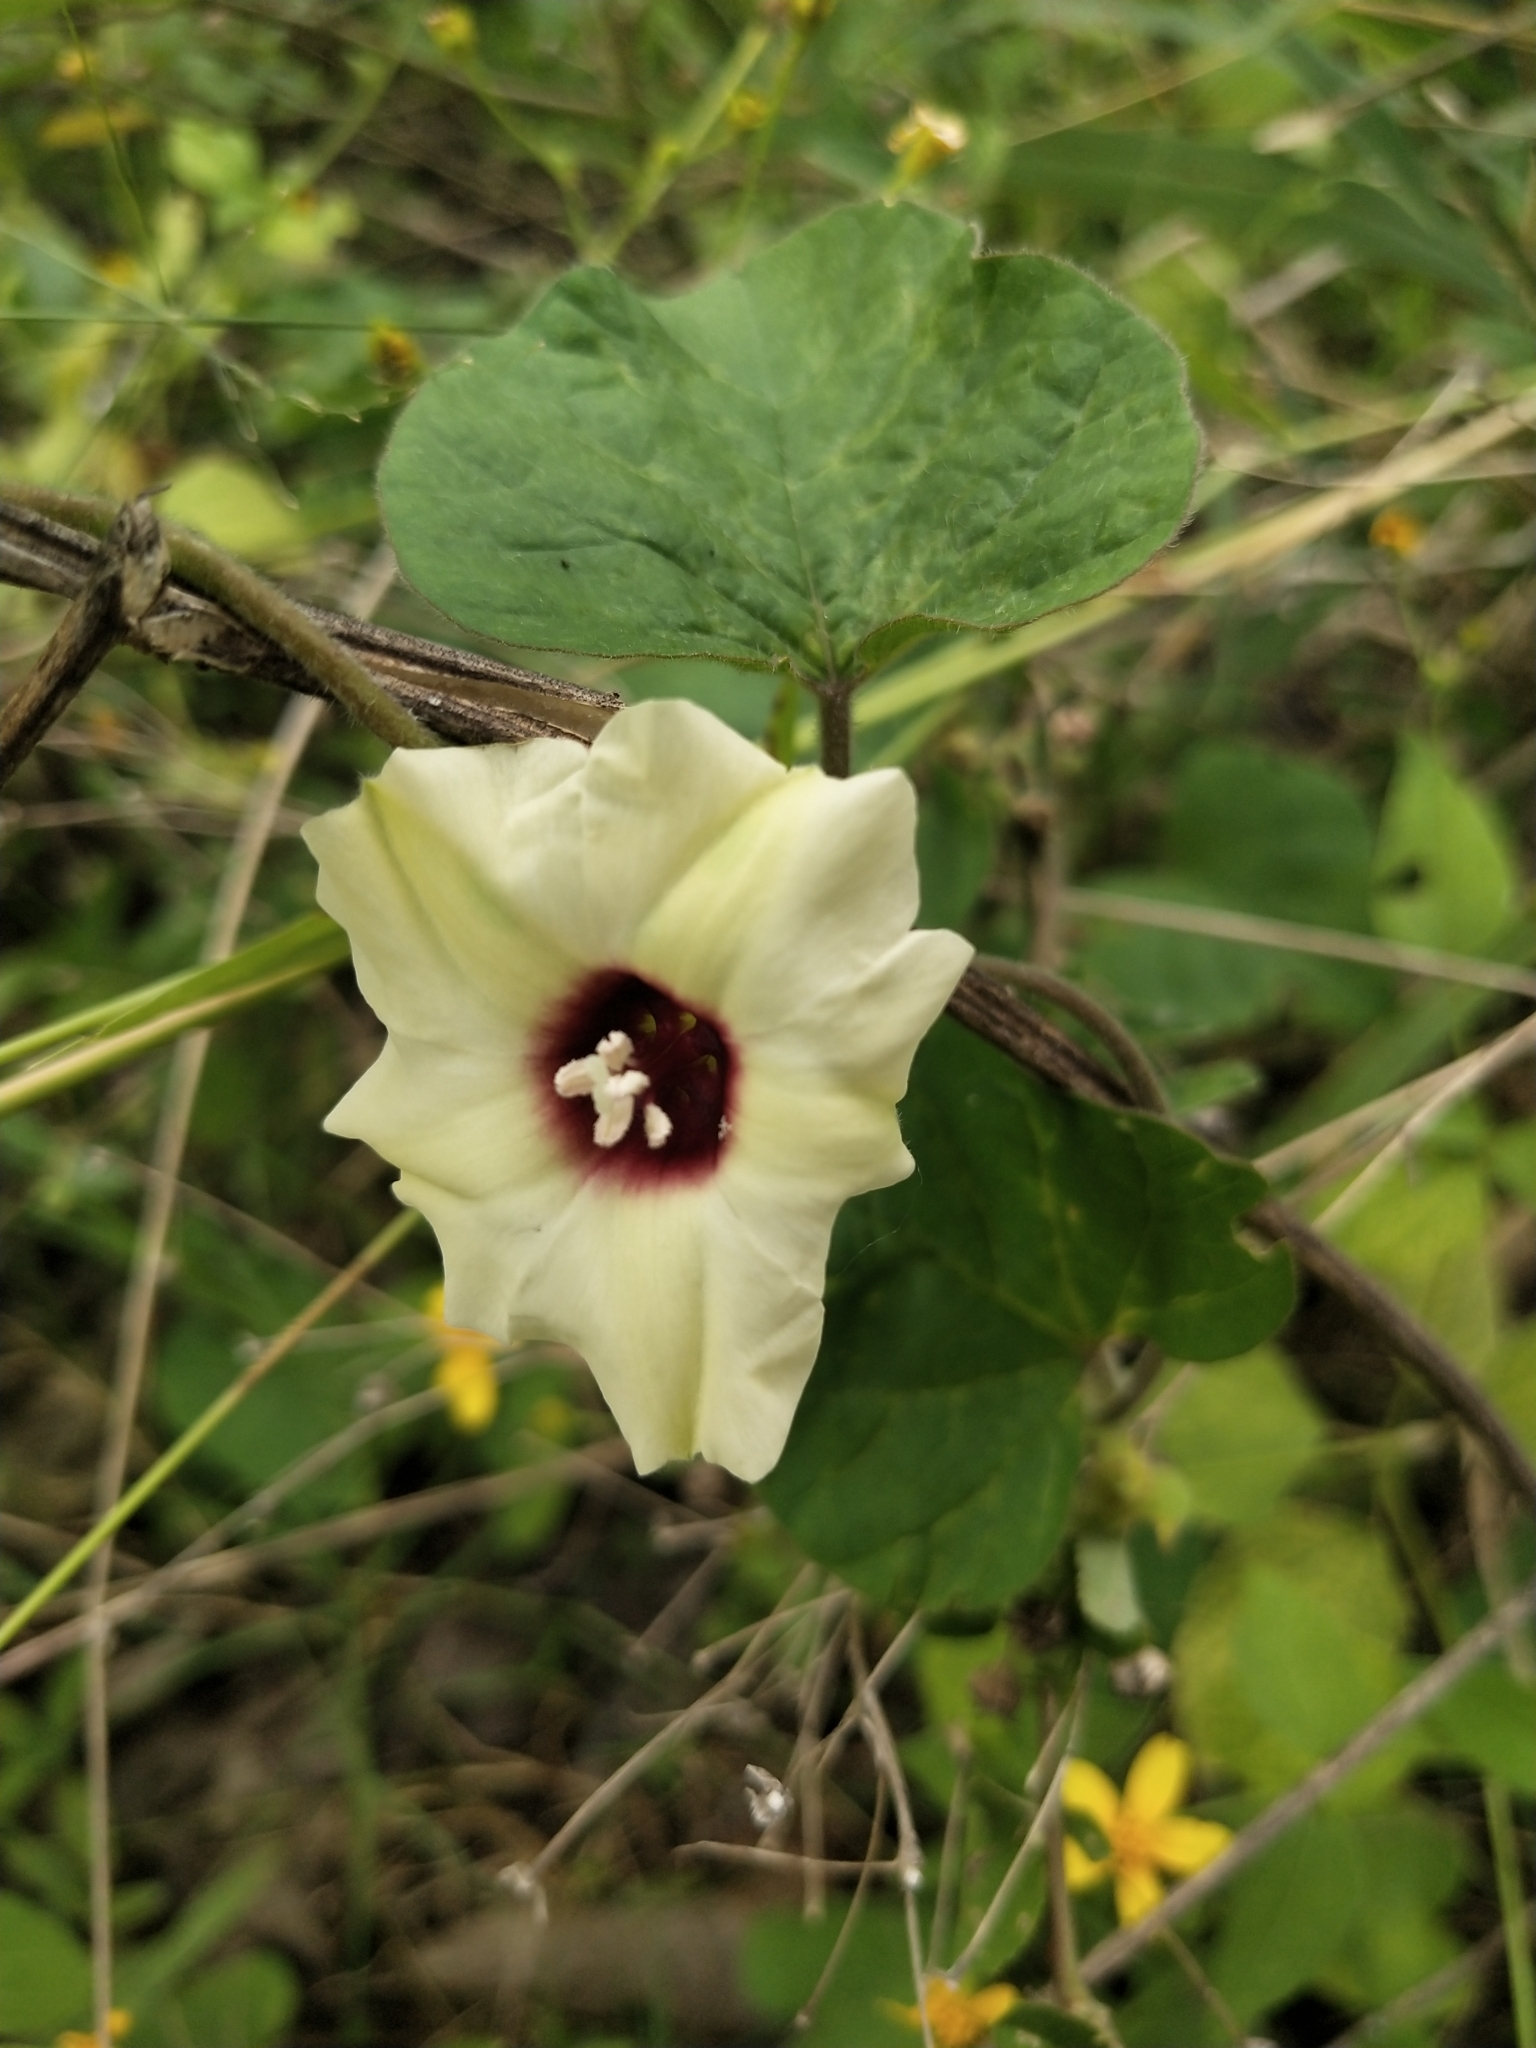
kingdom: Plantae
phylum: Tracheophyta
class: Magnoliopsida
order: Solanales
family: Convolvulaceae
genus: Hewittia
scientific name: Hewittia malabarica
